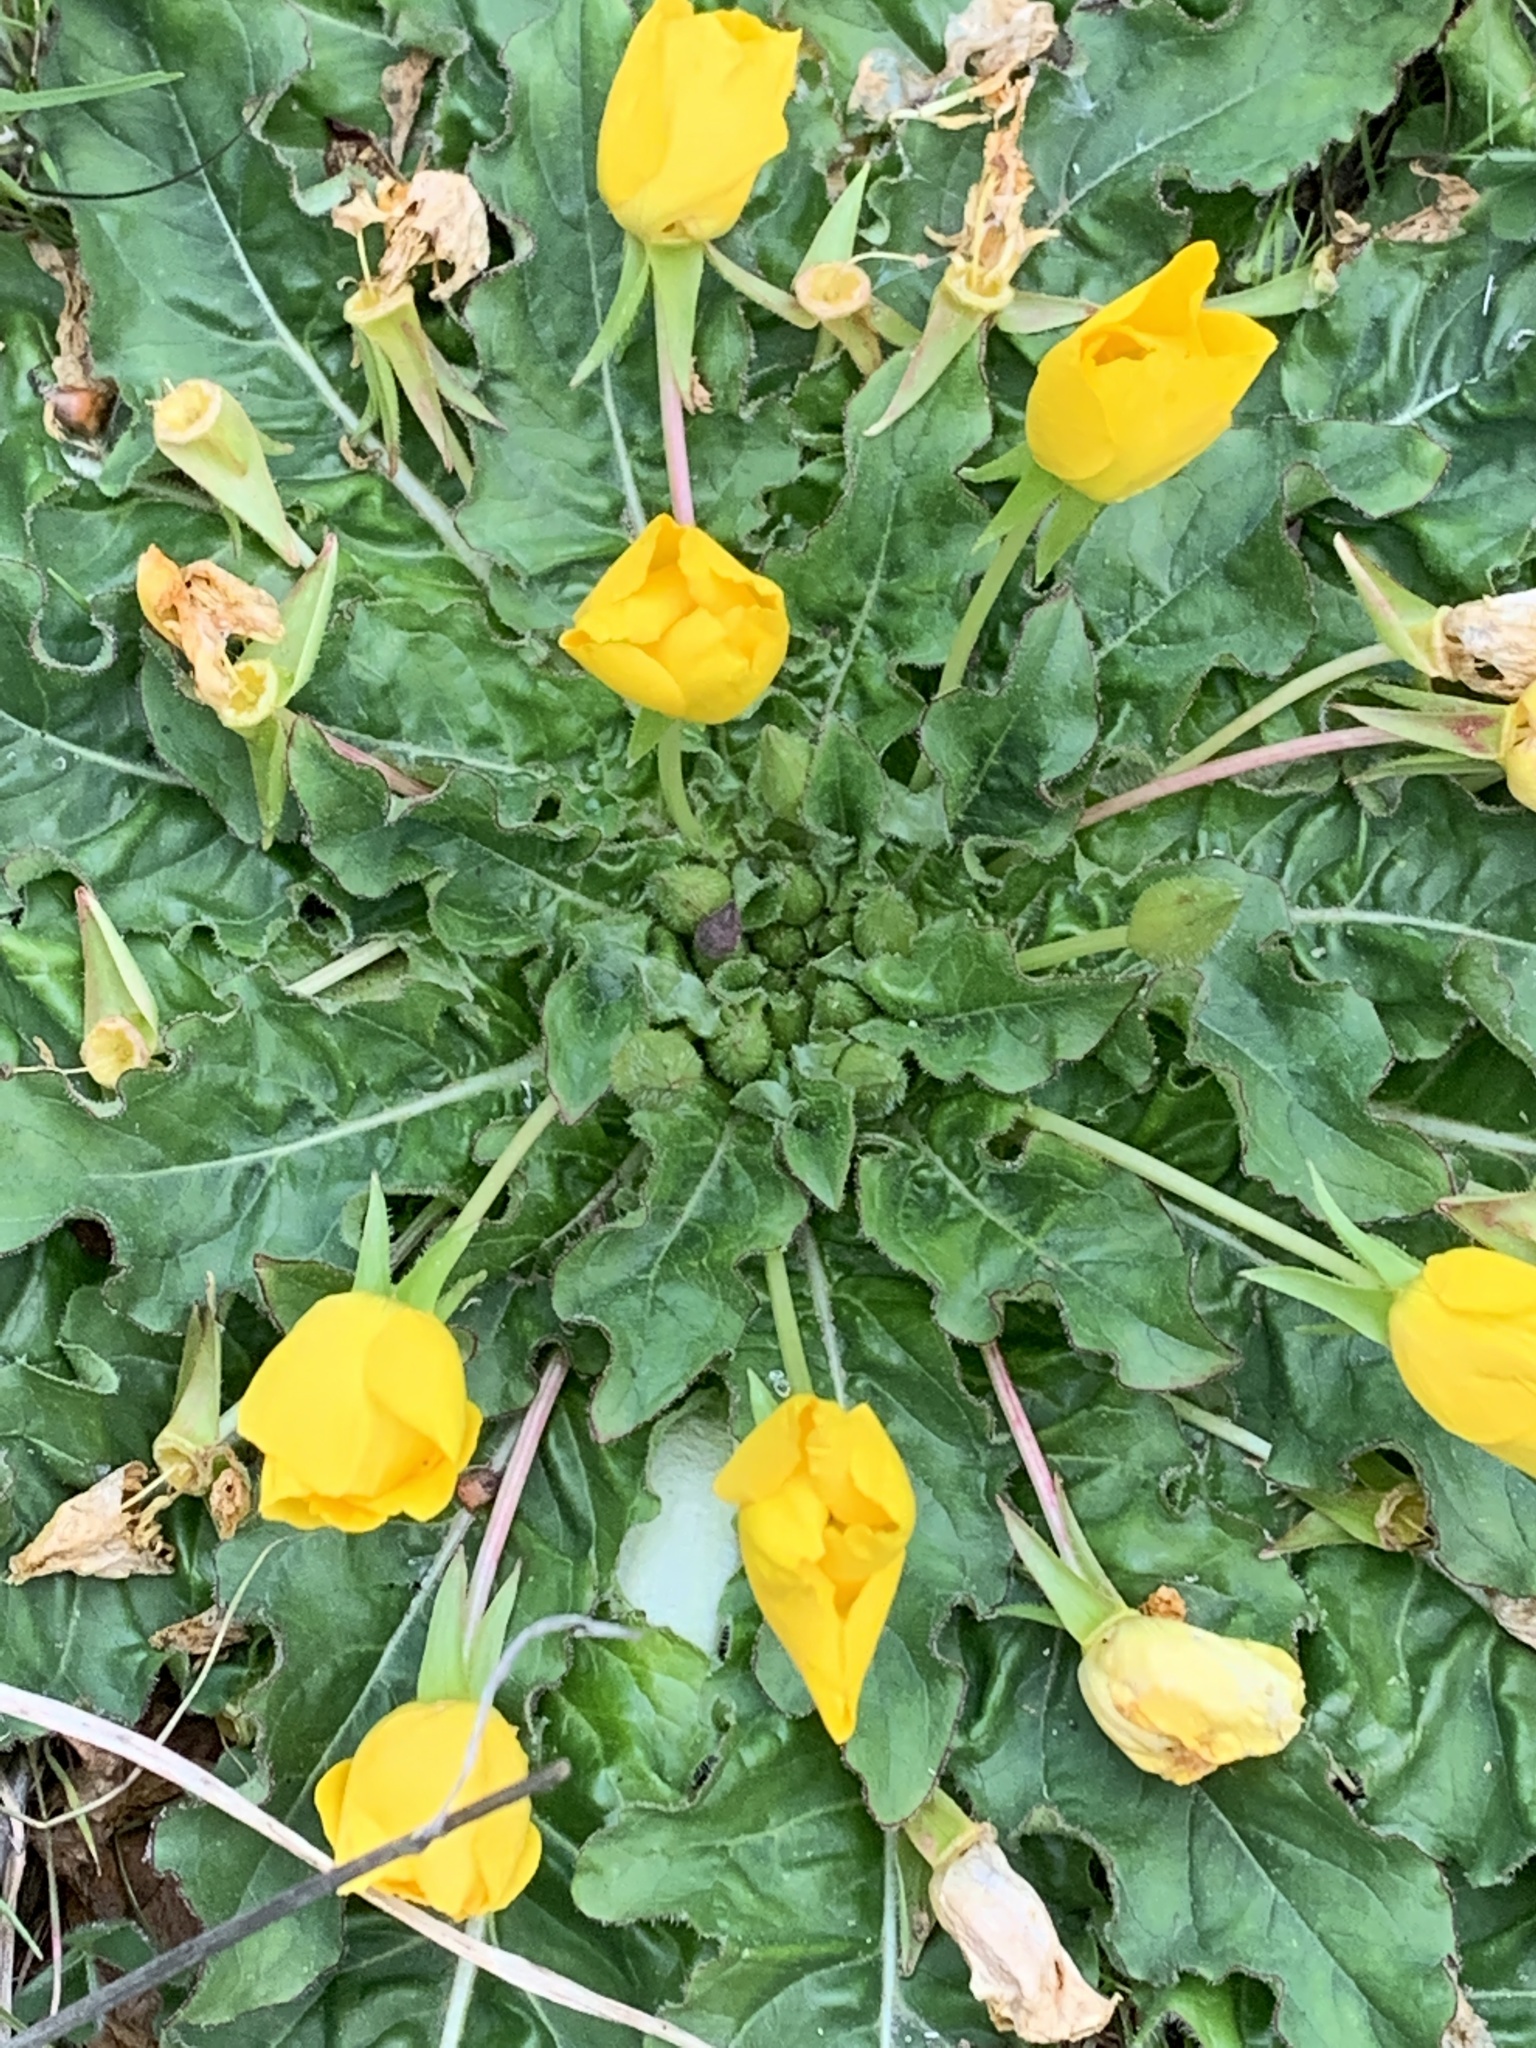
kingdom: Plantae
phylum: Tracheophyta
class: Magnoliopsida
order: Myrtales
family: Onagraceae
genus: Taraxia
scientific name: Taraxia ovata
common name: Goldeneggs
